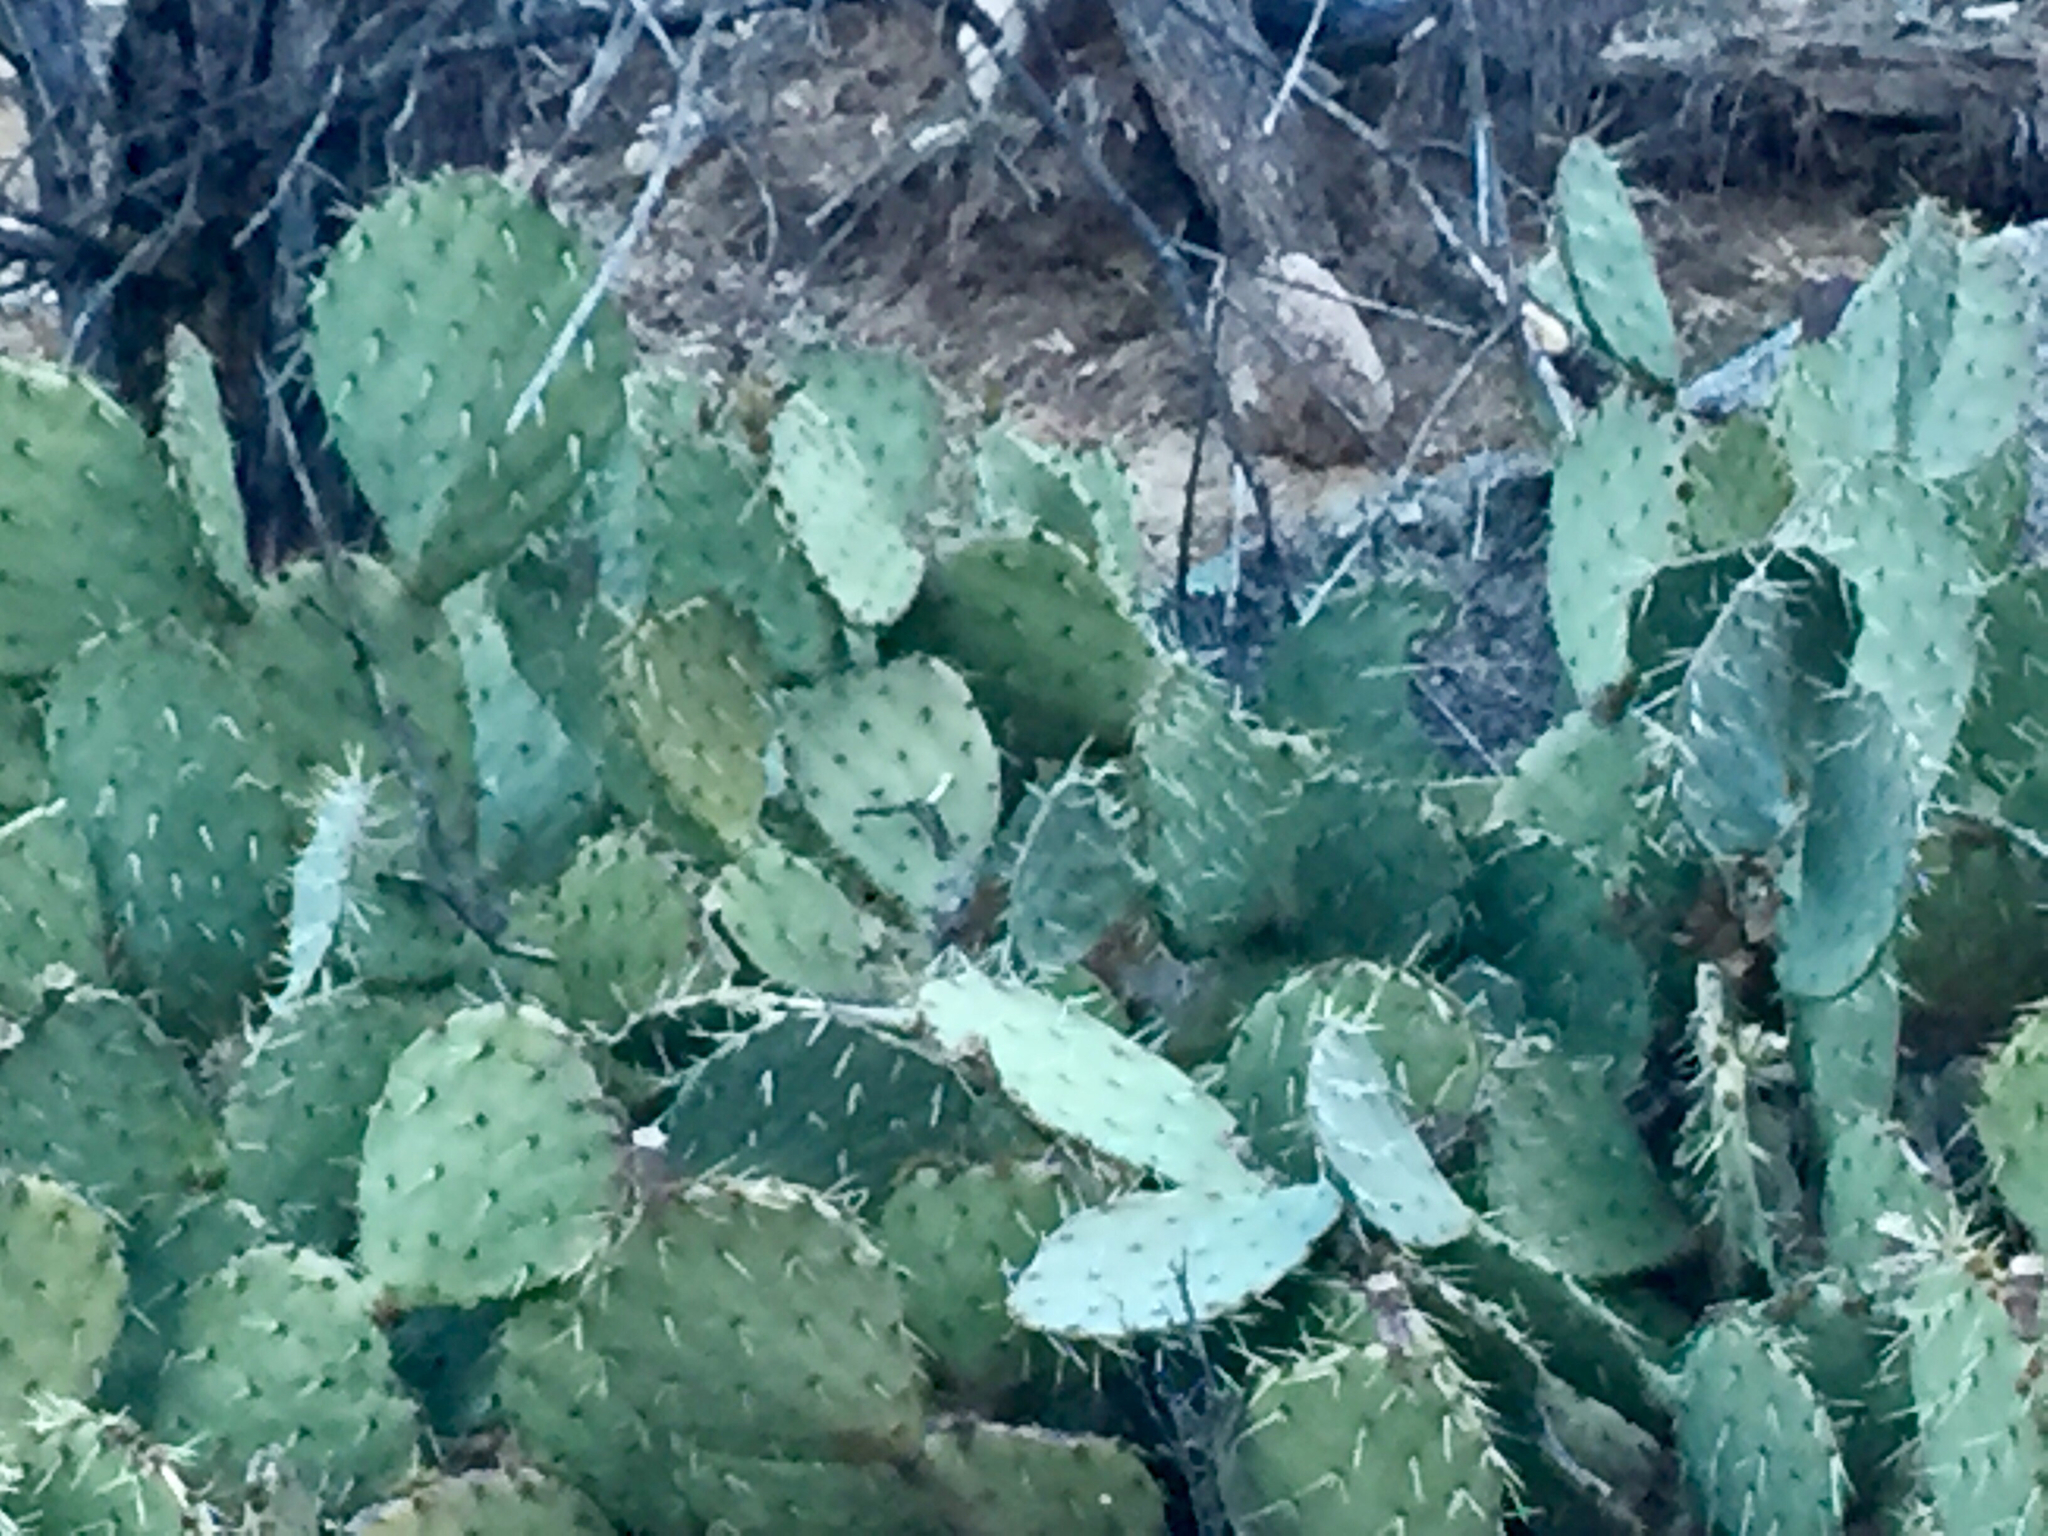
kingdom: Plantae
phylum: Tracheophyta
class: Magnoliopsida
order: Caryophyllales
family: Cactaceae
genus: Opuntia
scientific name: Opuntia engelmannii
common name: Cactus-apple
